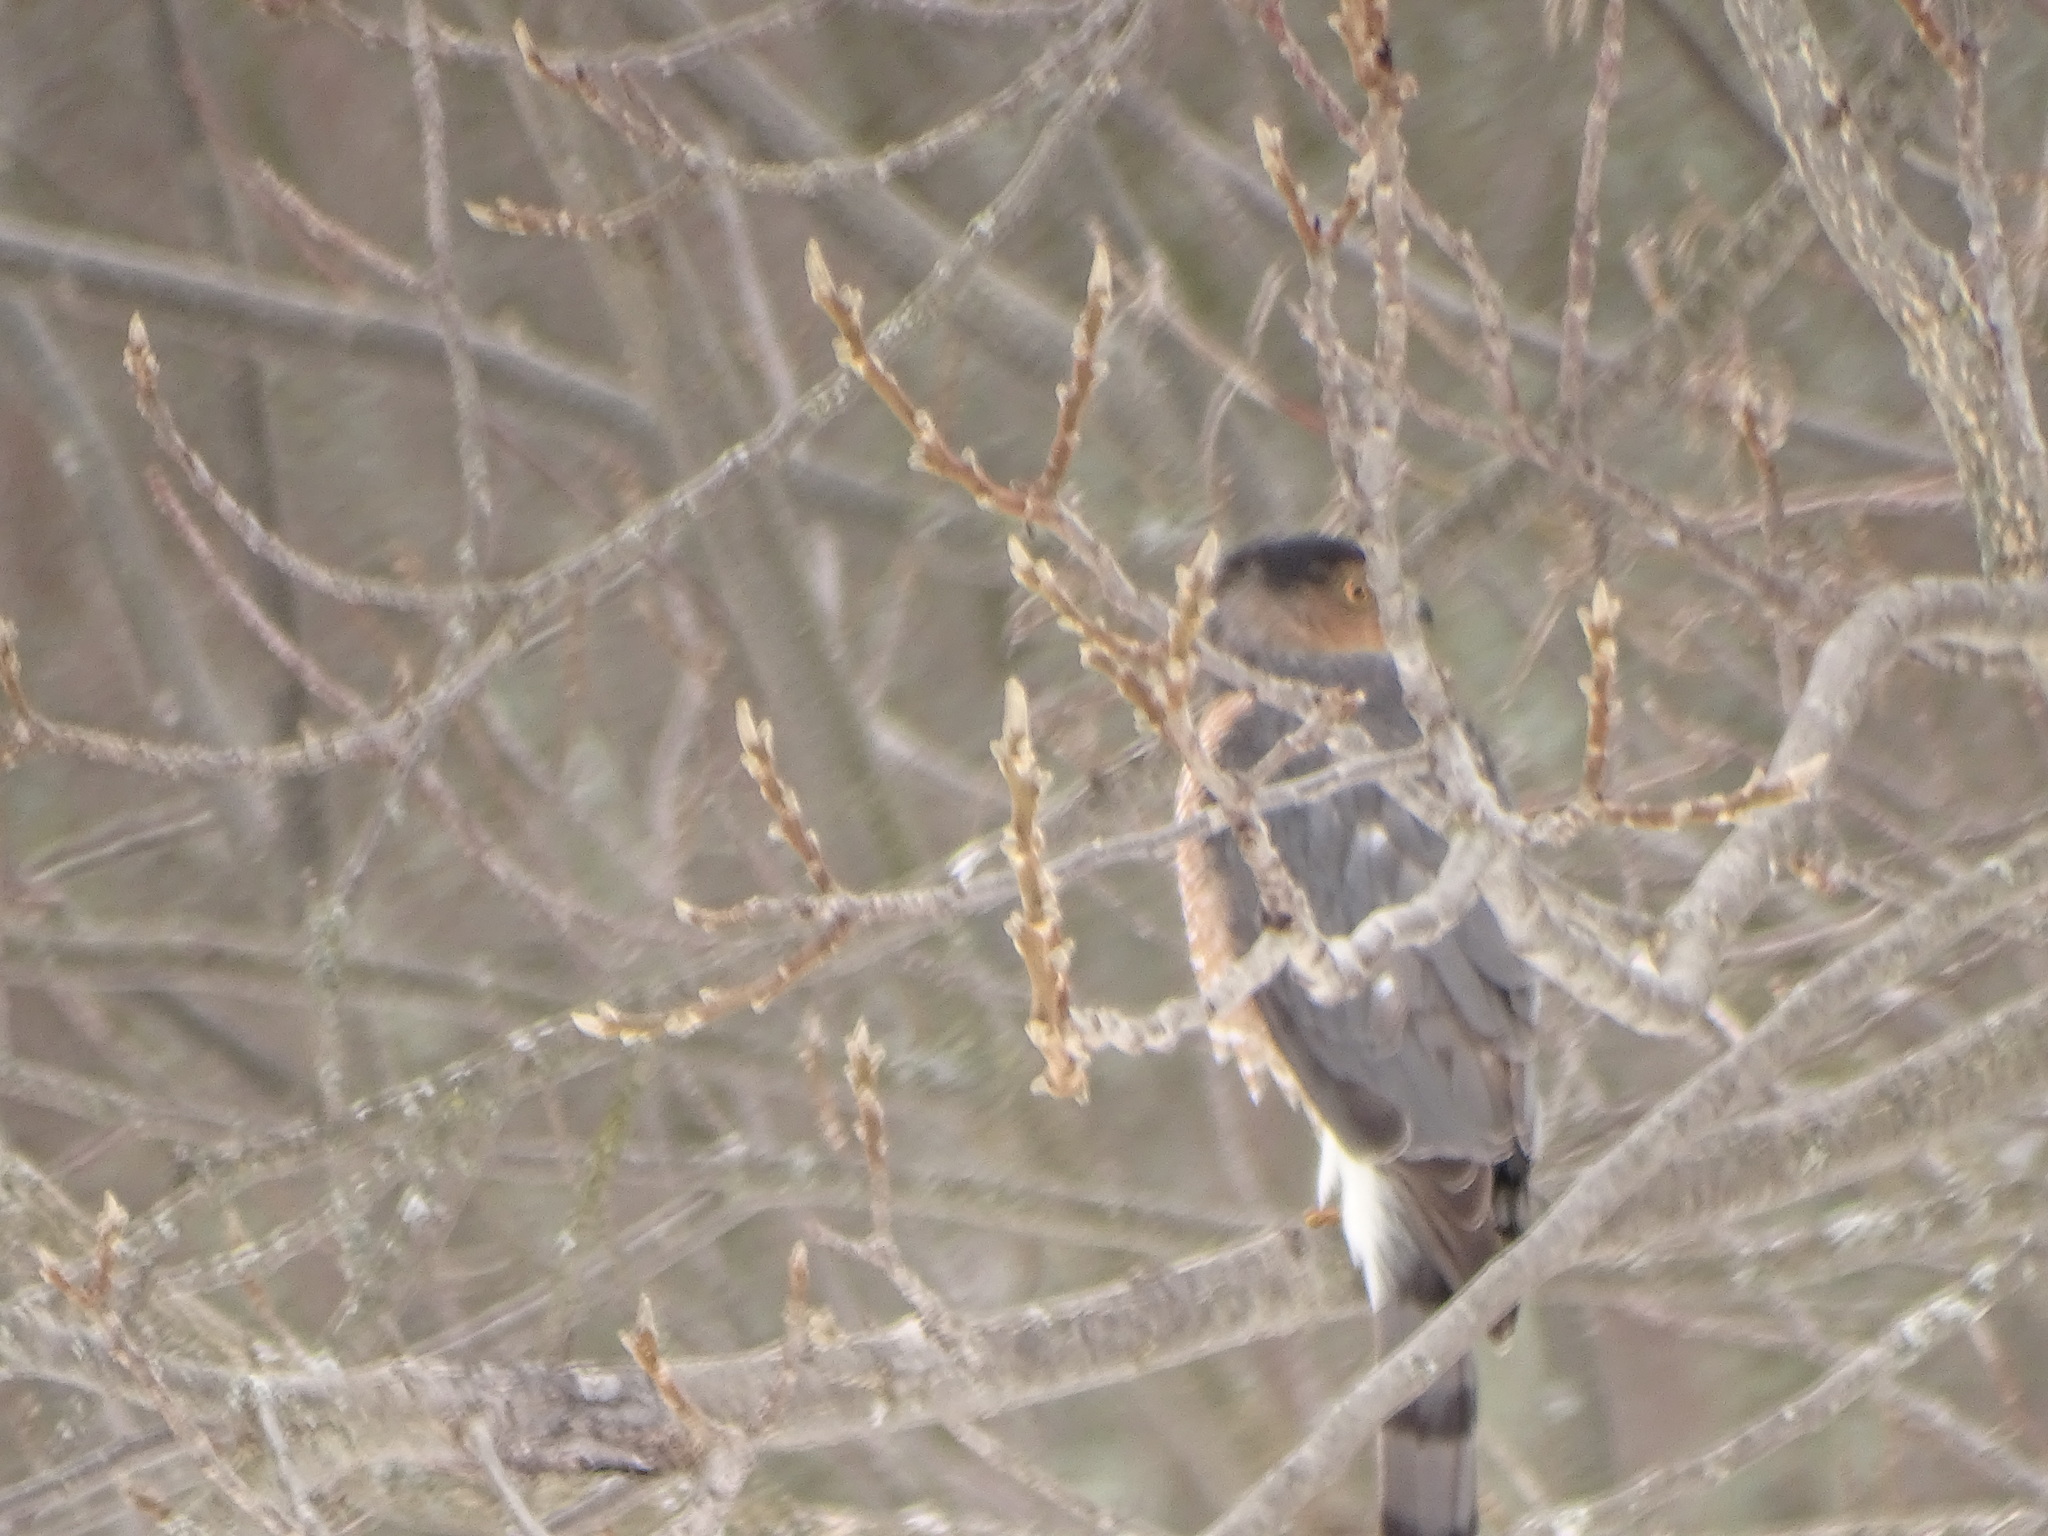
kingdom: Animalia
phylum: Chordata
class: Aves
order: Accipitriformes
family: Accipitridae
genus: Accipiter
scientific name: Accipiter cooperii
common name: Cooper's hawk
